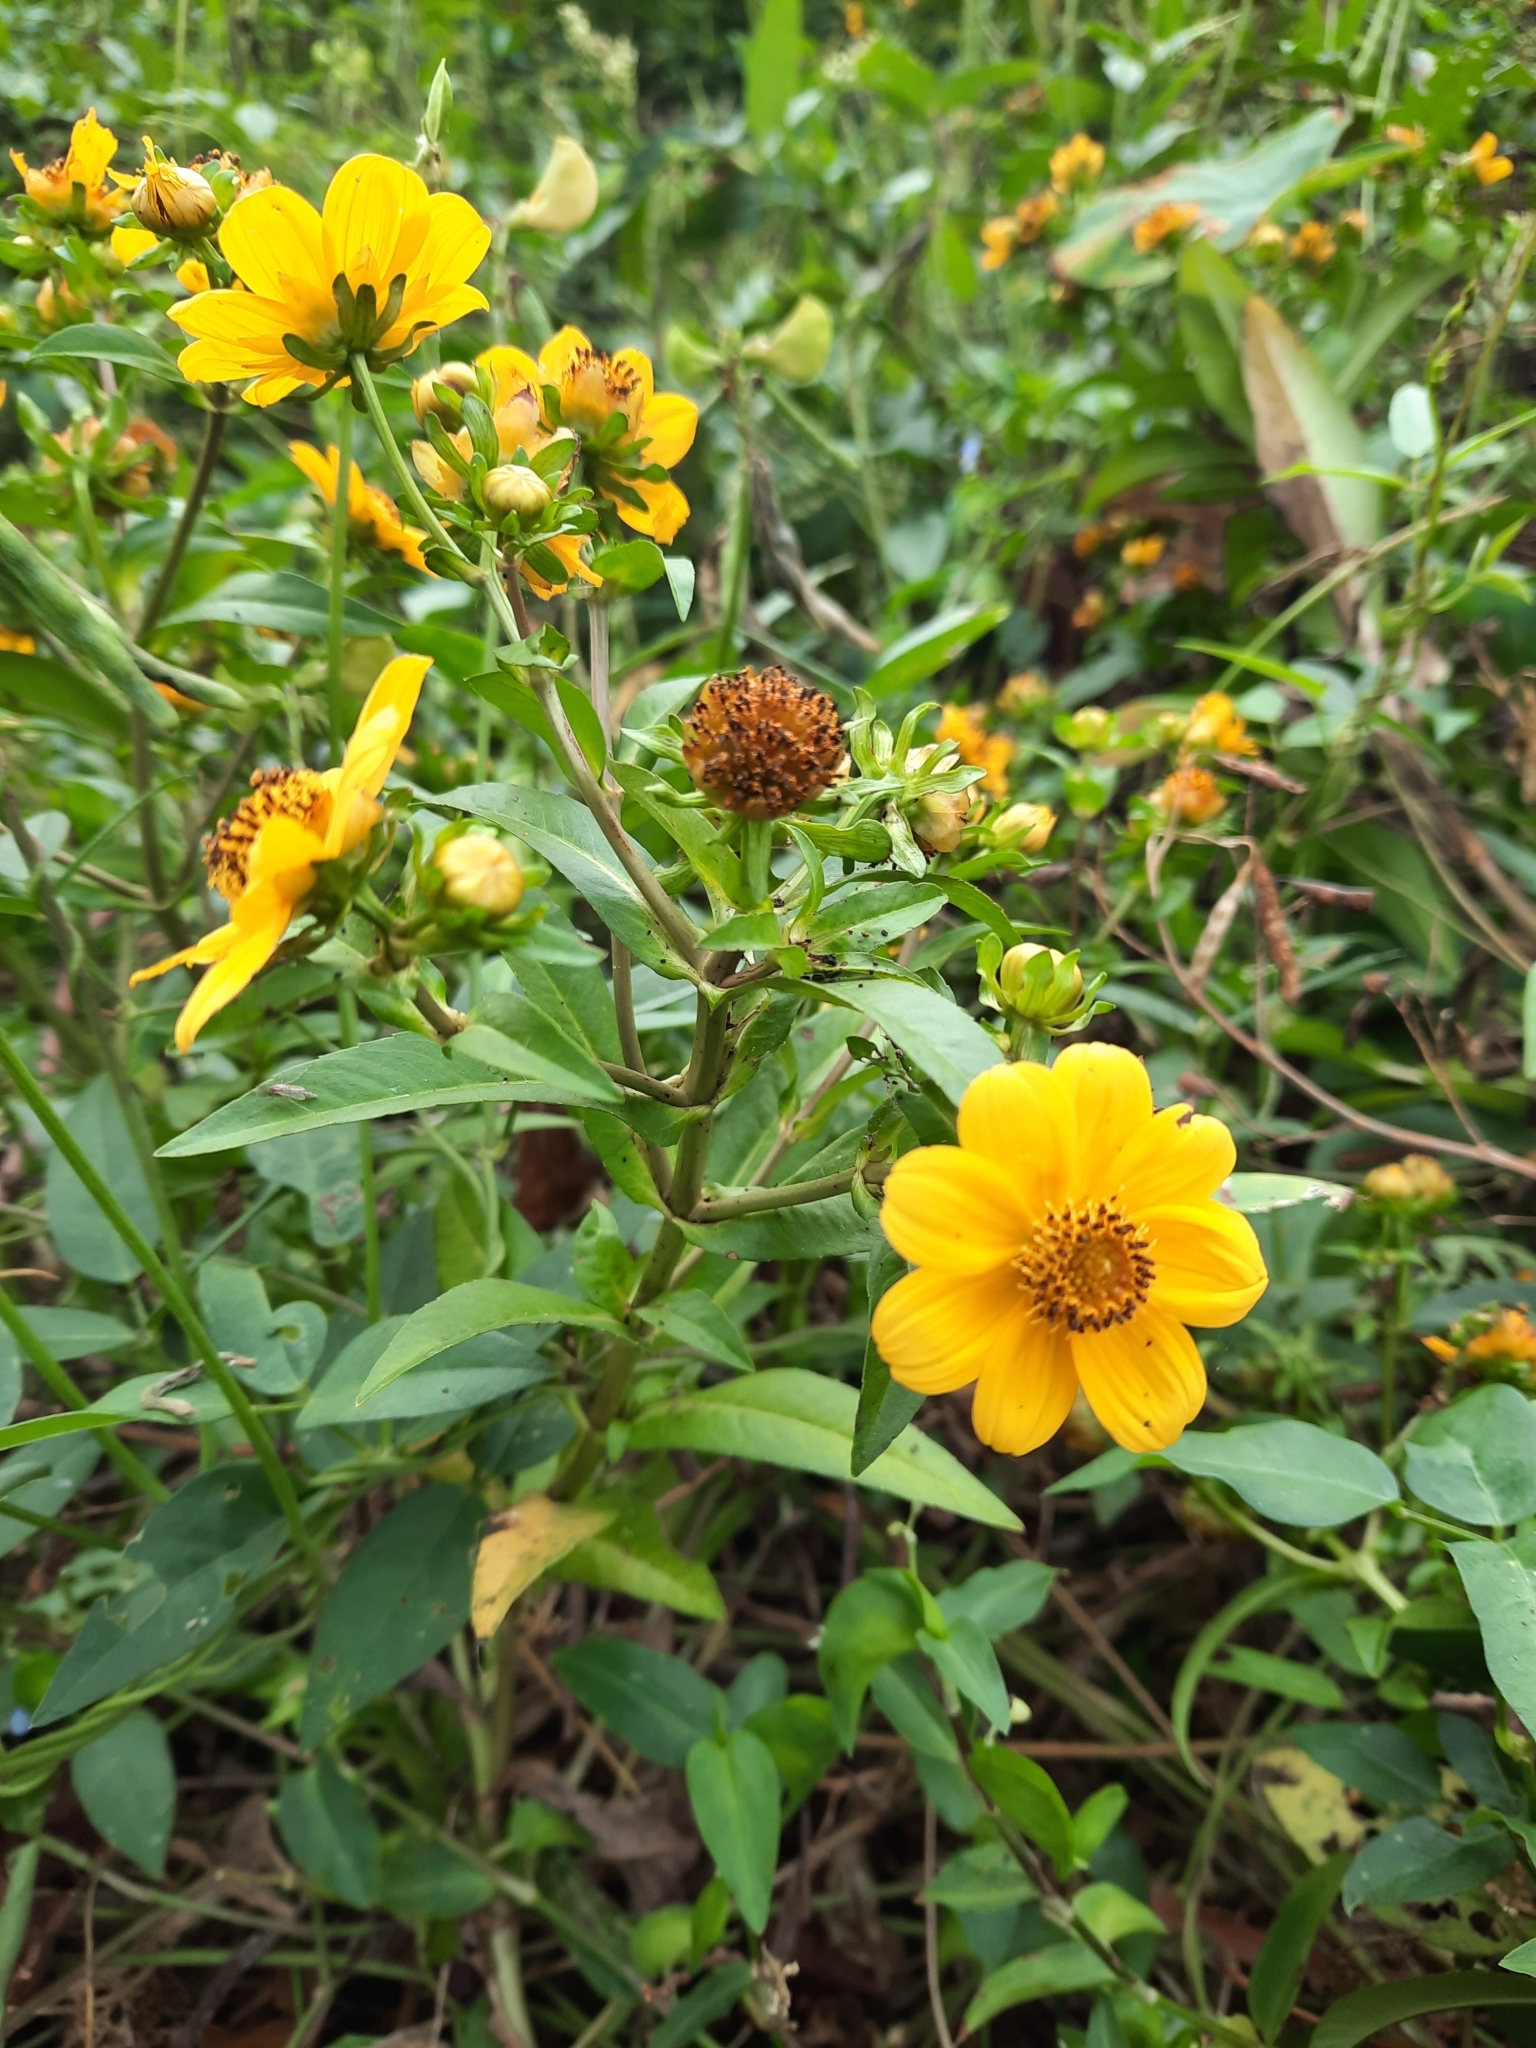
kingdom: Plantae
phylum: Tracheophyta
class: Magnoliopsida
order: Asterales
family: Asteraceae
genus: Bidens
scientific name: Bidens laevis
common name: Larger bur-marigold
